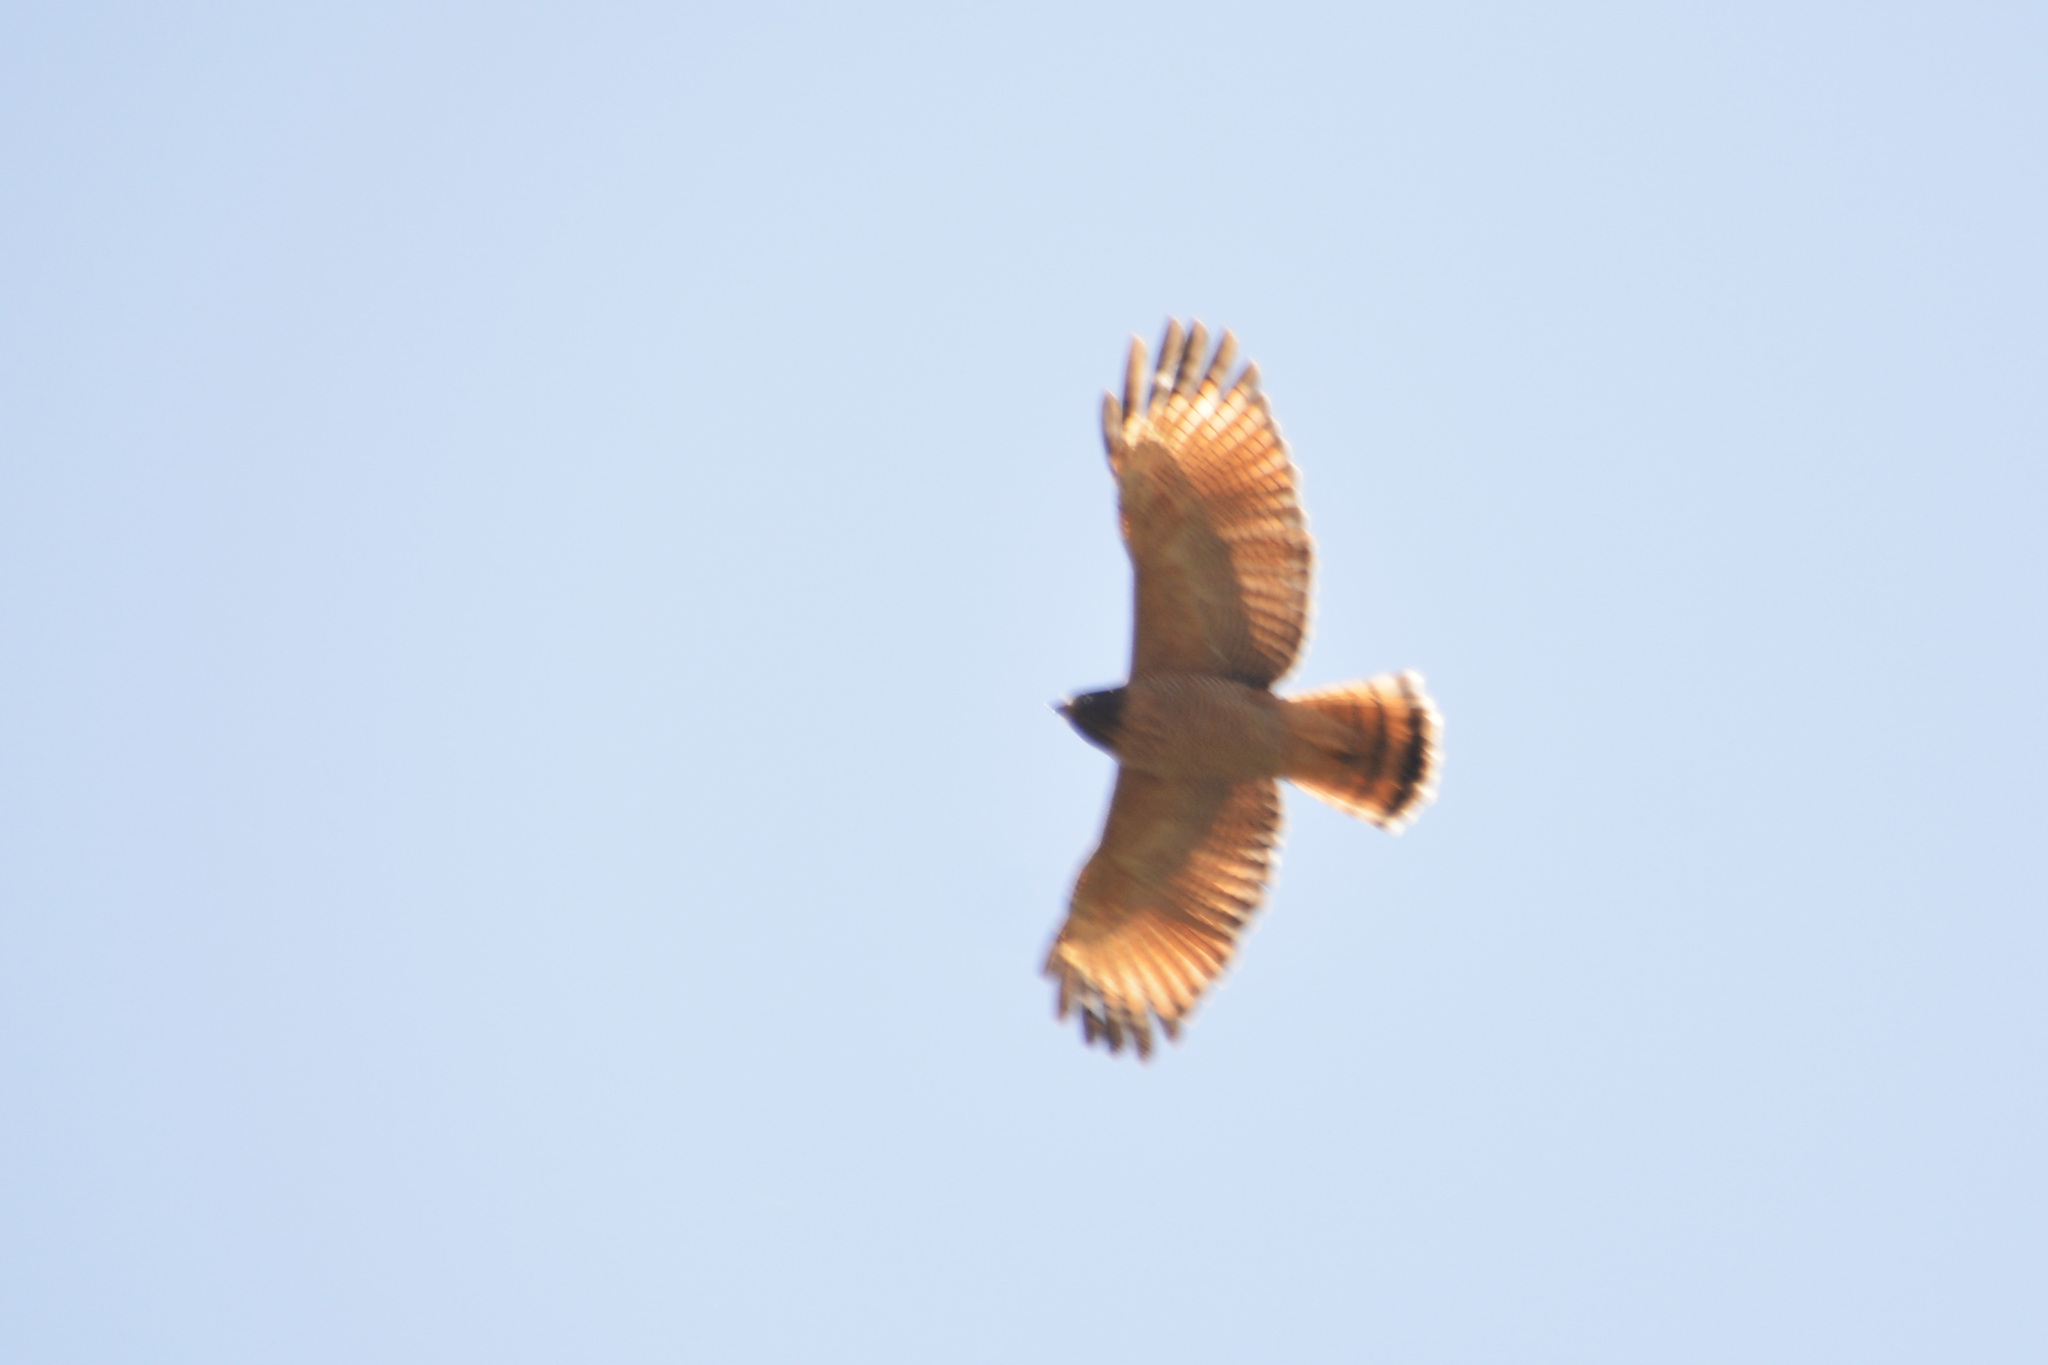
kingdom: Animalia
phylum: Chordata
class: Aves
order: Accipitriformes
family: Accipitridae
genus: Rupornis
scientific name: Rupornis magnirostris
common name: Roadside hawk
